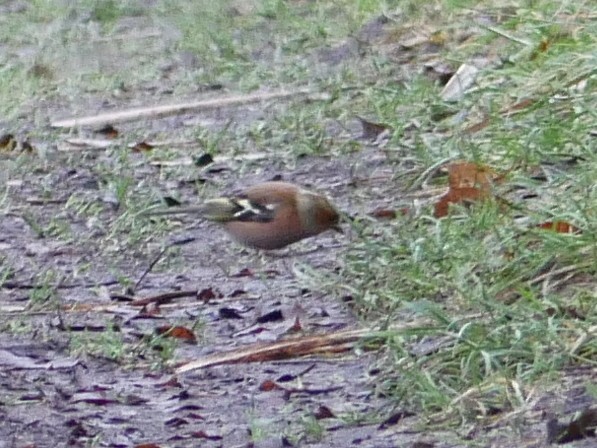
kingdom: Animalia
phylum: Chordata
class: Aves
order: Passeriformes
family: Fringillidae
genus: Fringilla
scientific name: Fringilla coelebs
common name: Common chaffinch
